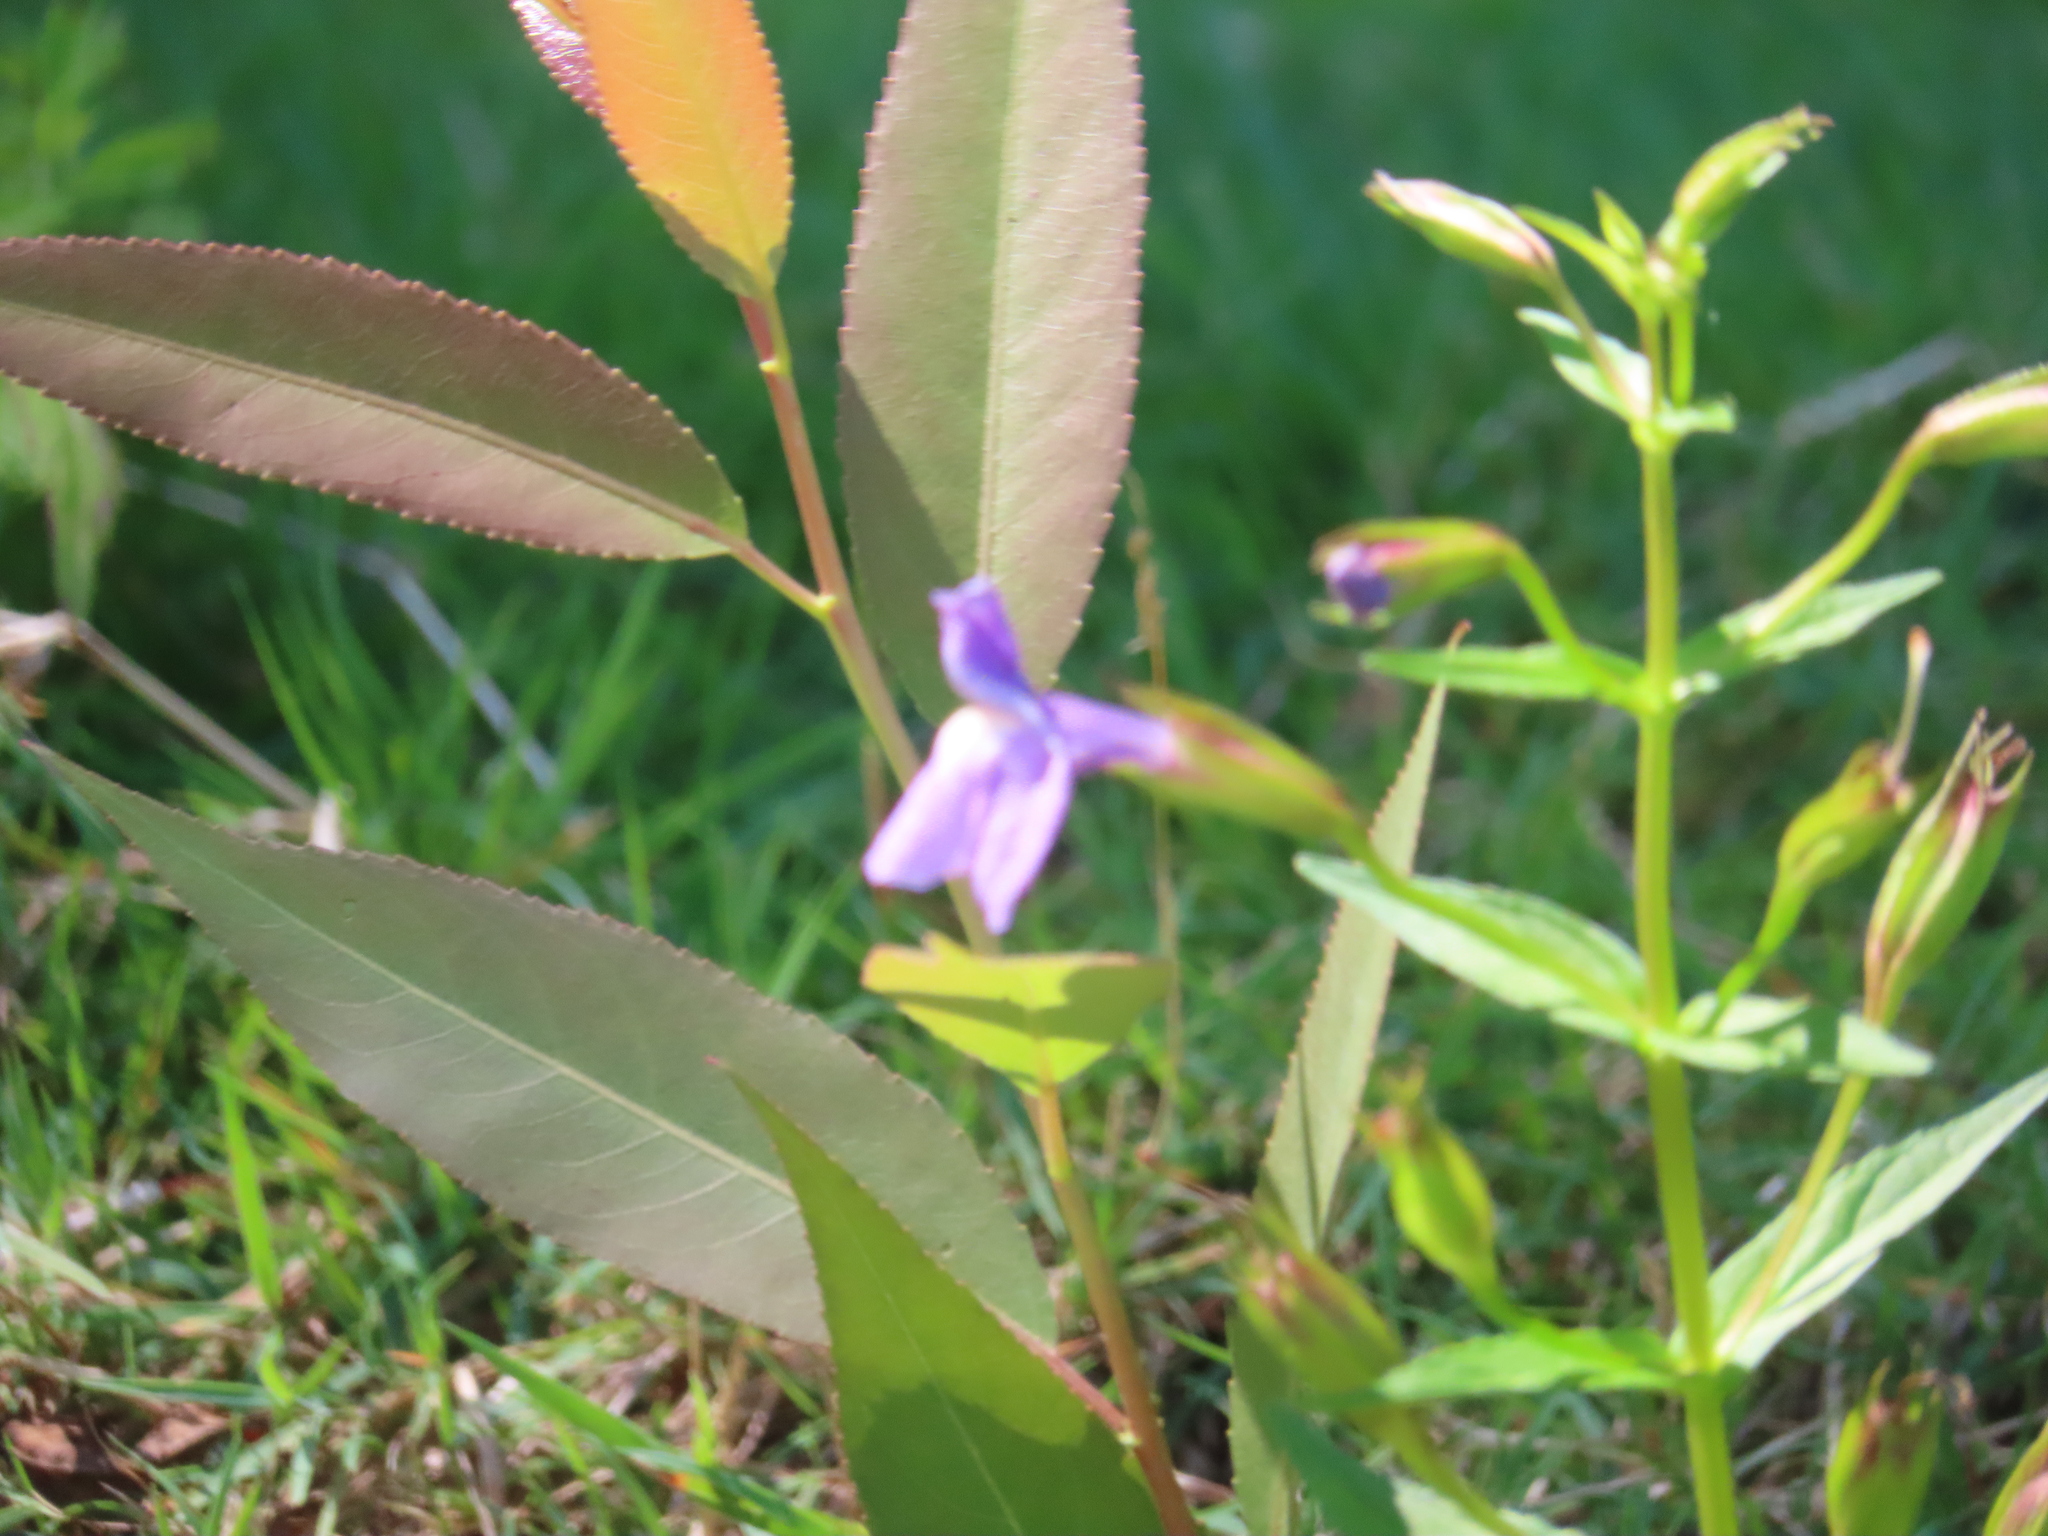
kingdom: Plantae
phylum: Tracheophyta
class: Magnoliopsida
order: Lamiales
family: Phrymaceae
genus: Mimulus
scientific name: Mimulus ringens
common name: Allegheny monkeyflower
